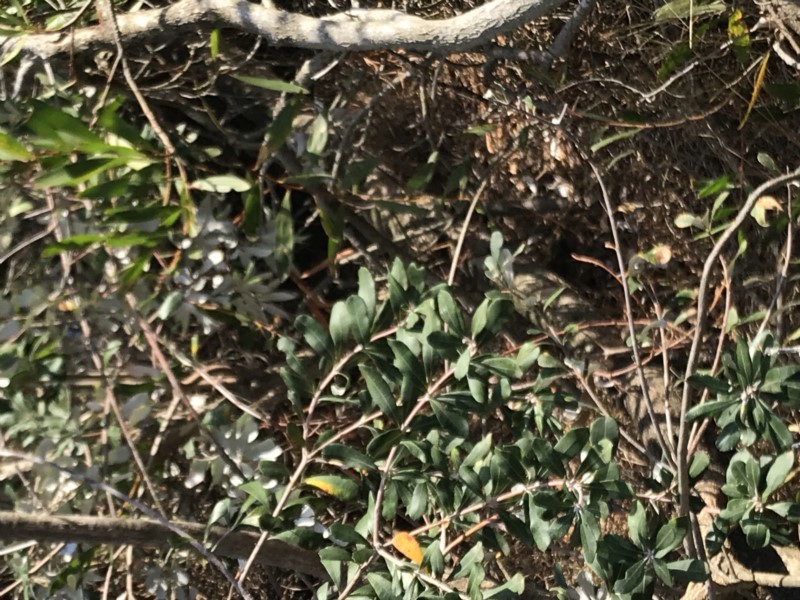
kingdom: Plantae
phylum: Tracheophyta
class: Magnoliopsida
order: Proteales
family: Proteaceae
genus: Banksia
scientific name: Banksia integrifolia
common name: White-honeysuckle
